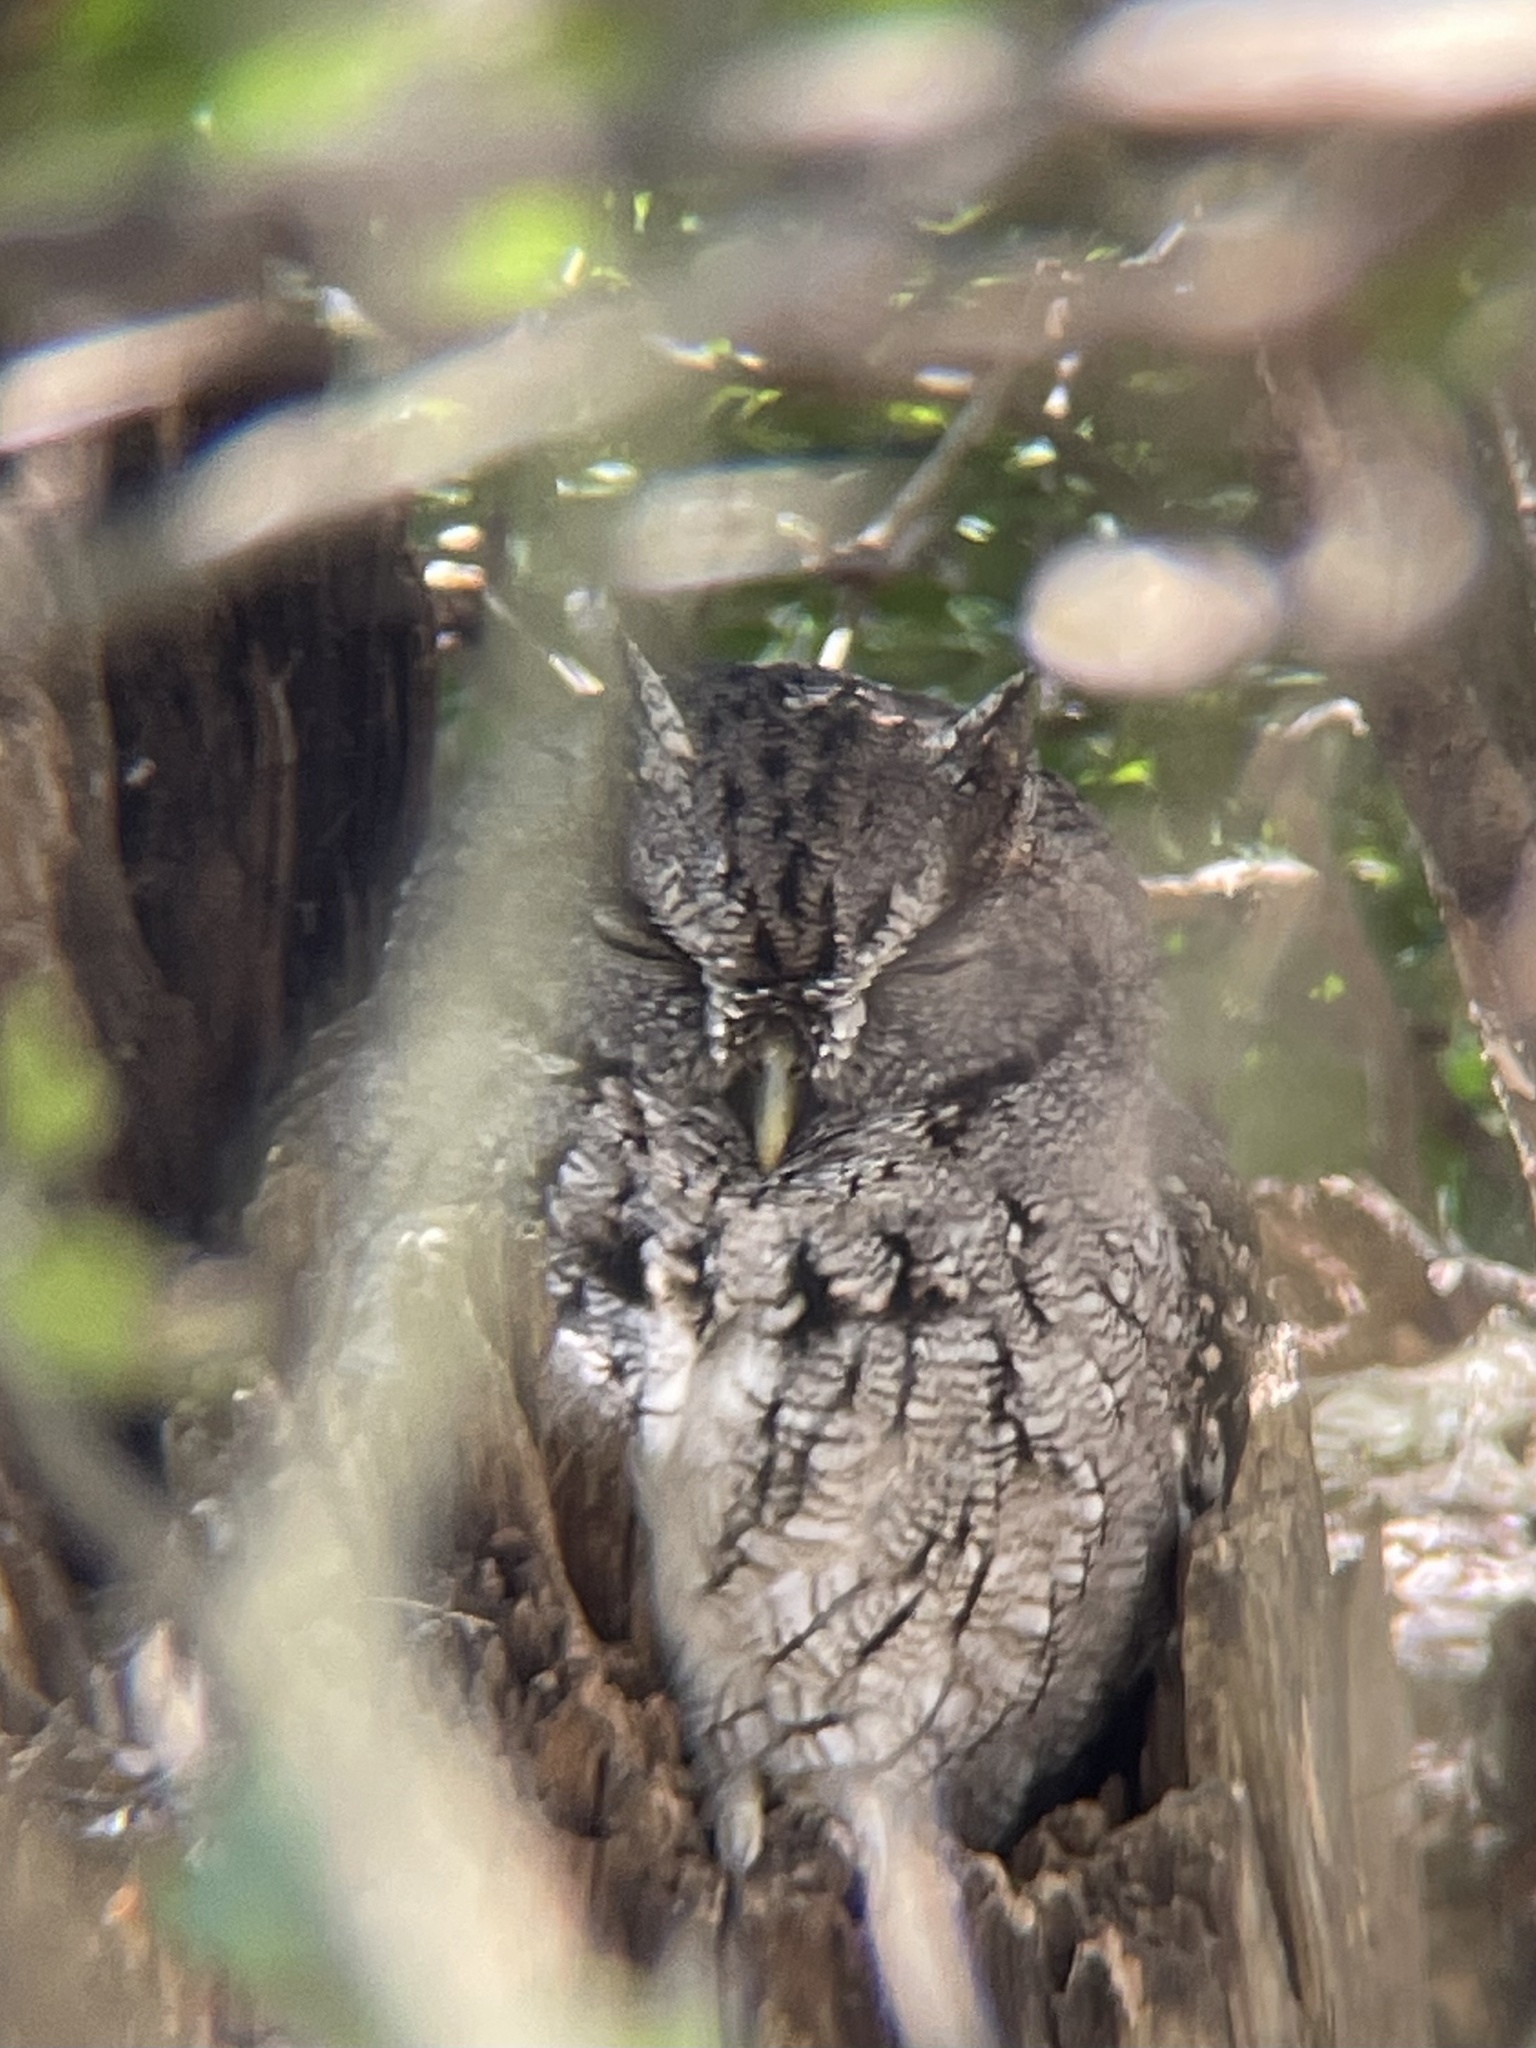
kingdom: Animalia
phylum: Chordata
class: Aves
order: Strigiformes
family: Strigidae
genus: Megascops
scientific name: Megascops asio
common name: Eastern screech-owl
